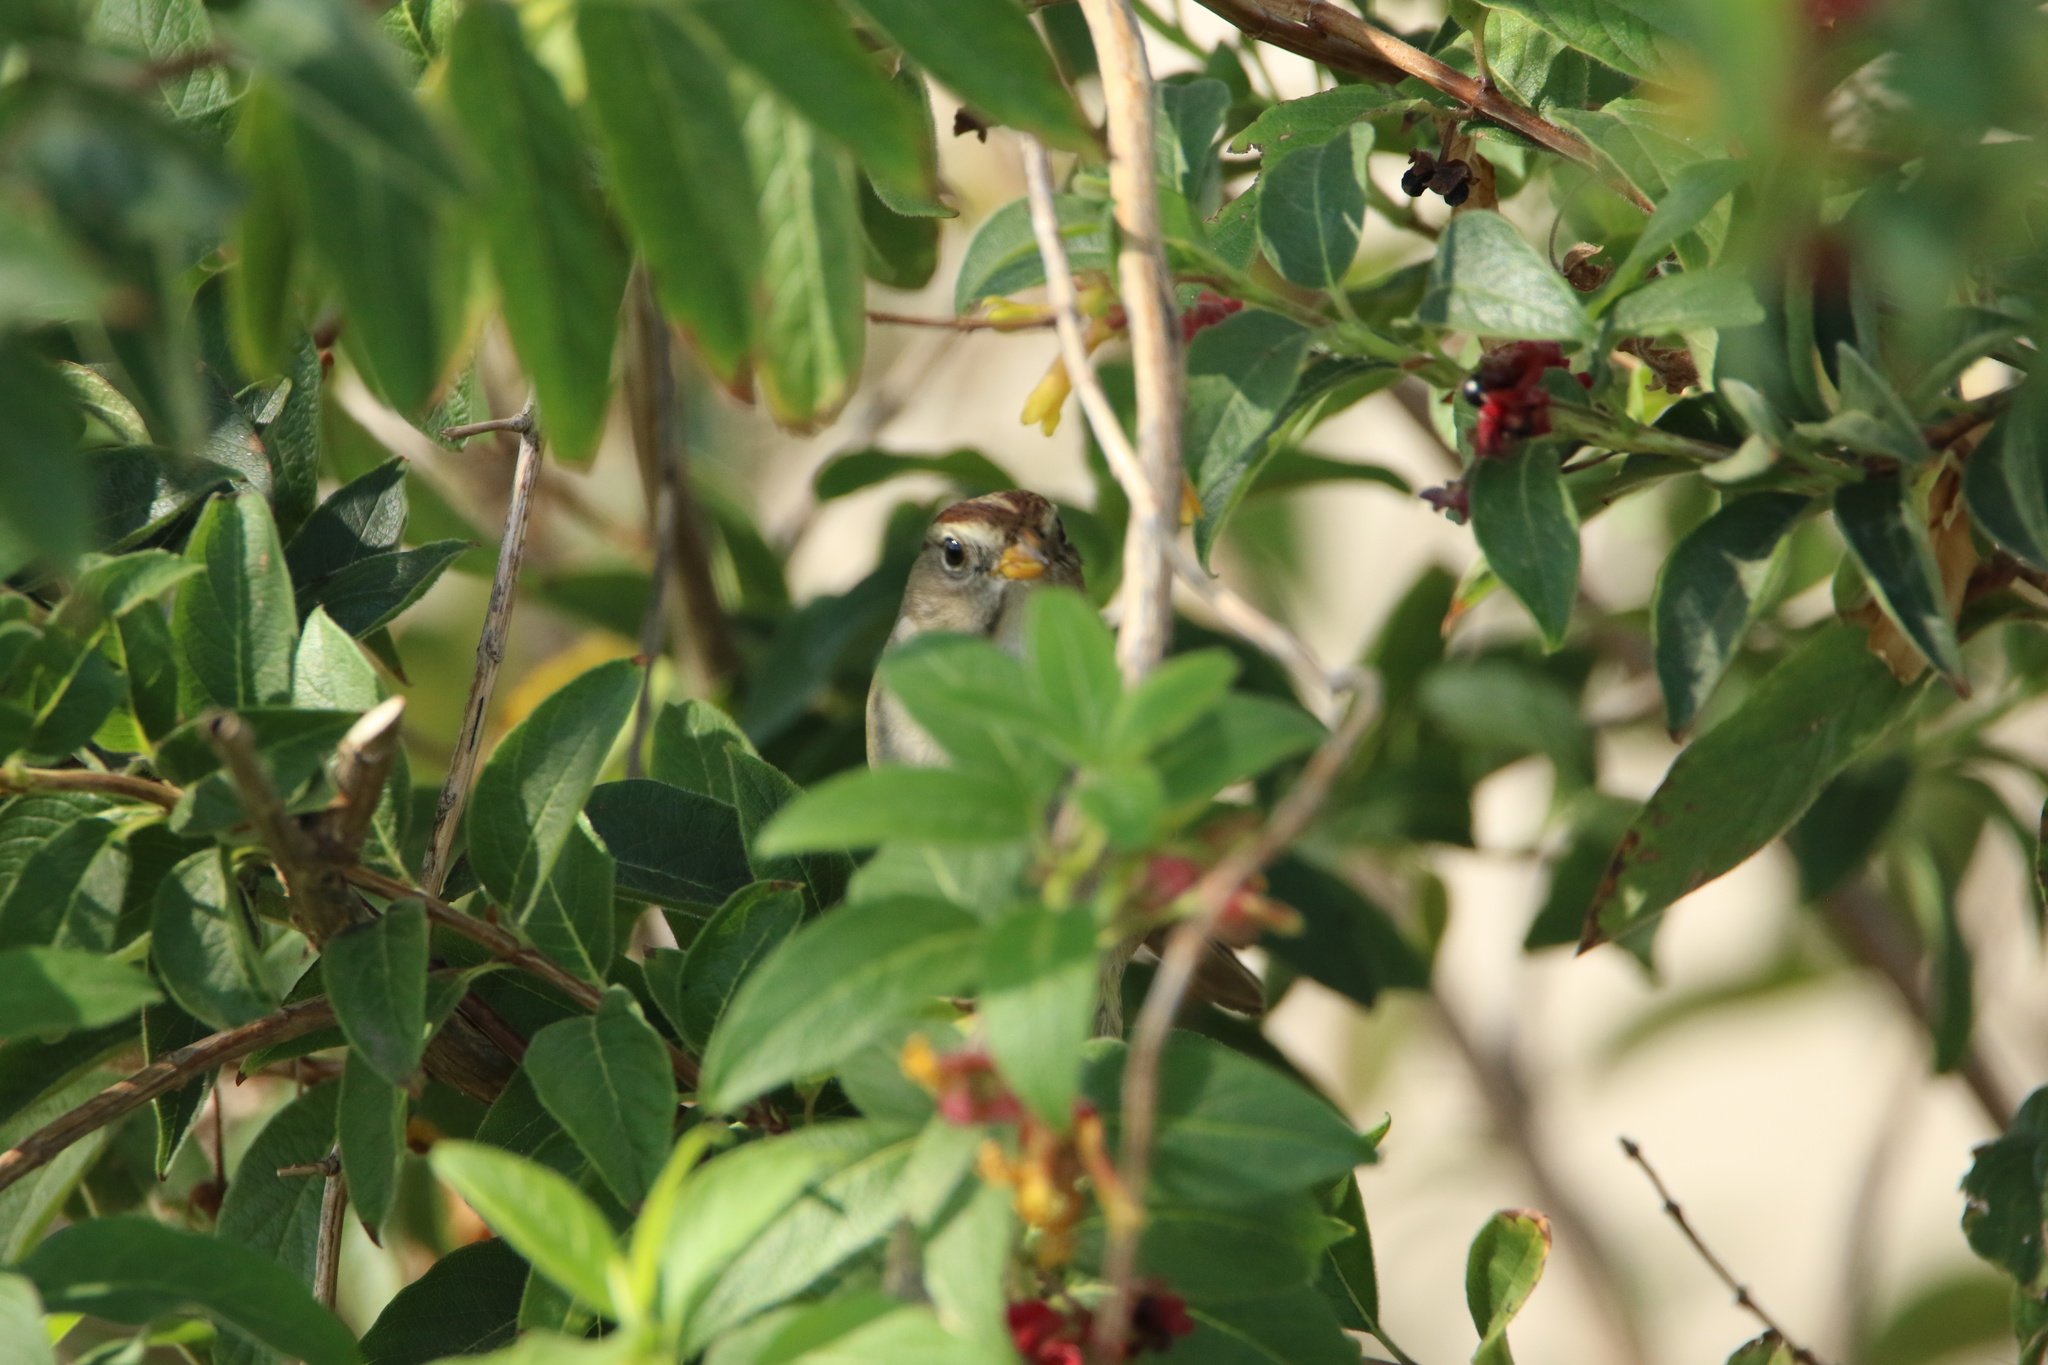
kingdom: Animalia
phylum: Chordata
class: Aves
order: Passeriformes
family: Passerellidae
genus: Zonotrichia
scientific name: Zonotrichia leucophrys
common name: White-crowned sparrow
